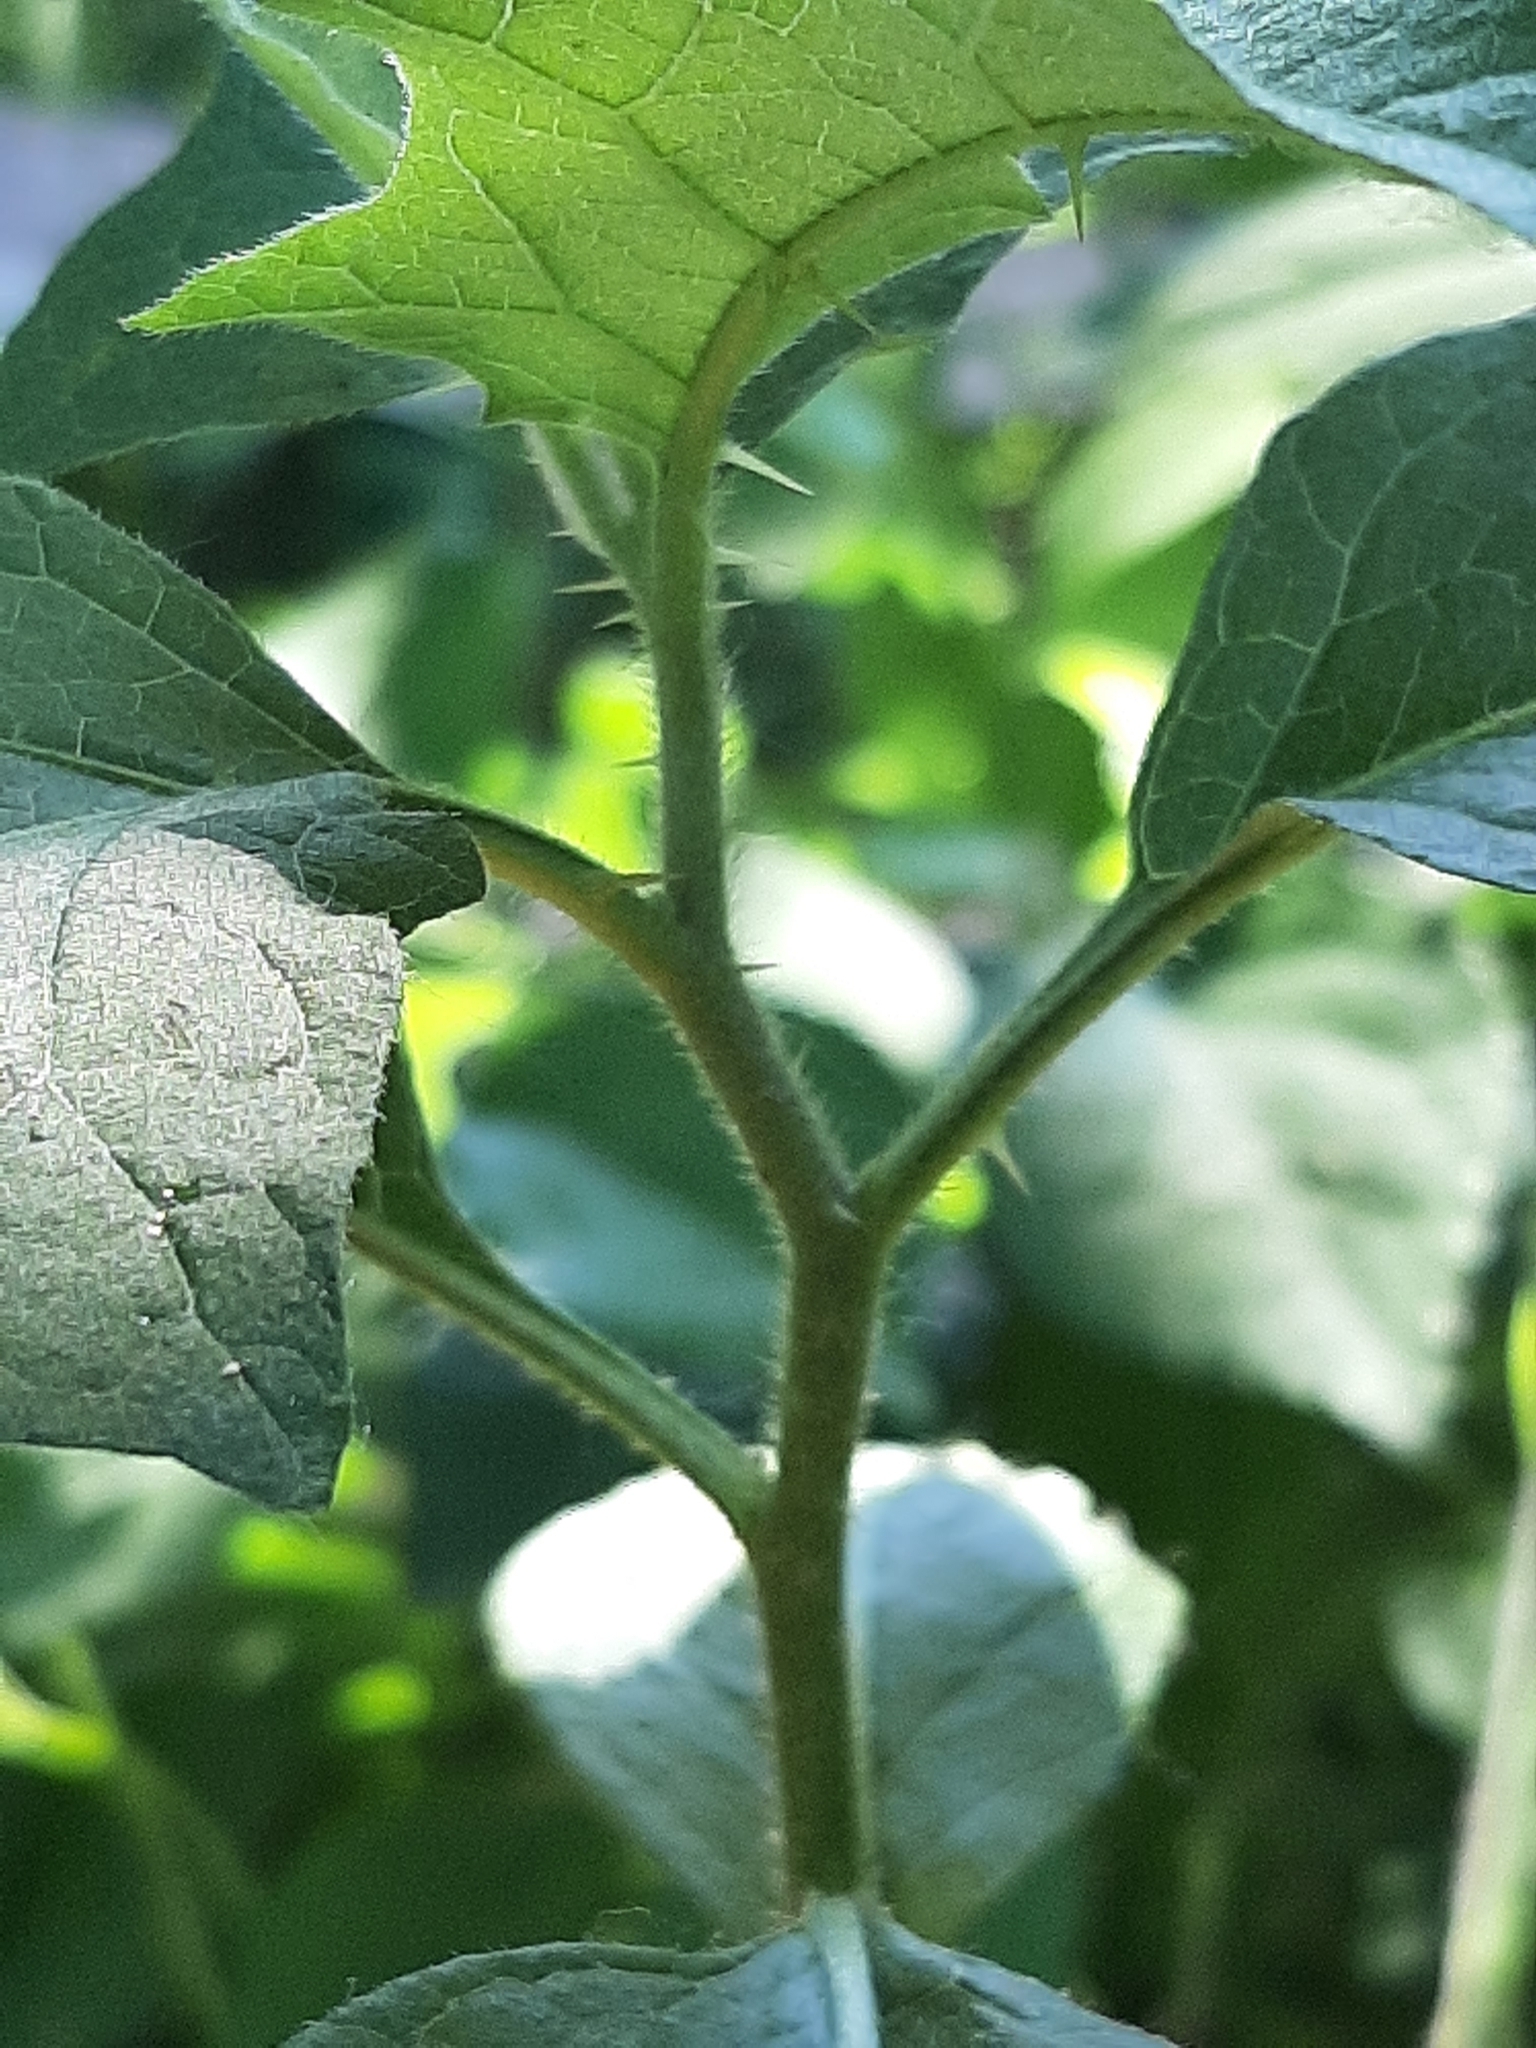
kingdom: Plantae
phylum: Tracheophyta
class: Magnoliopsida
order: Solanales
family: Solanaceae
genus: Solanum
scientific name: Solanum carolinense
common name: Horse-nettle
